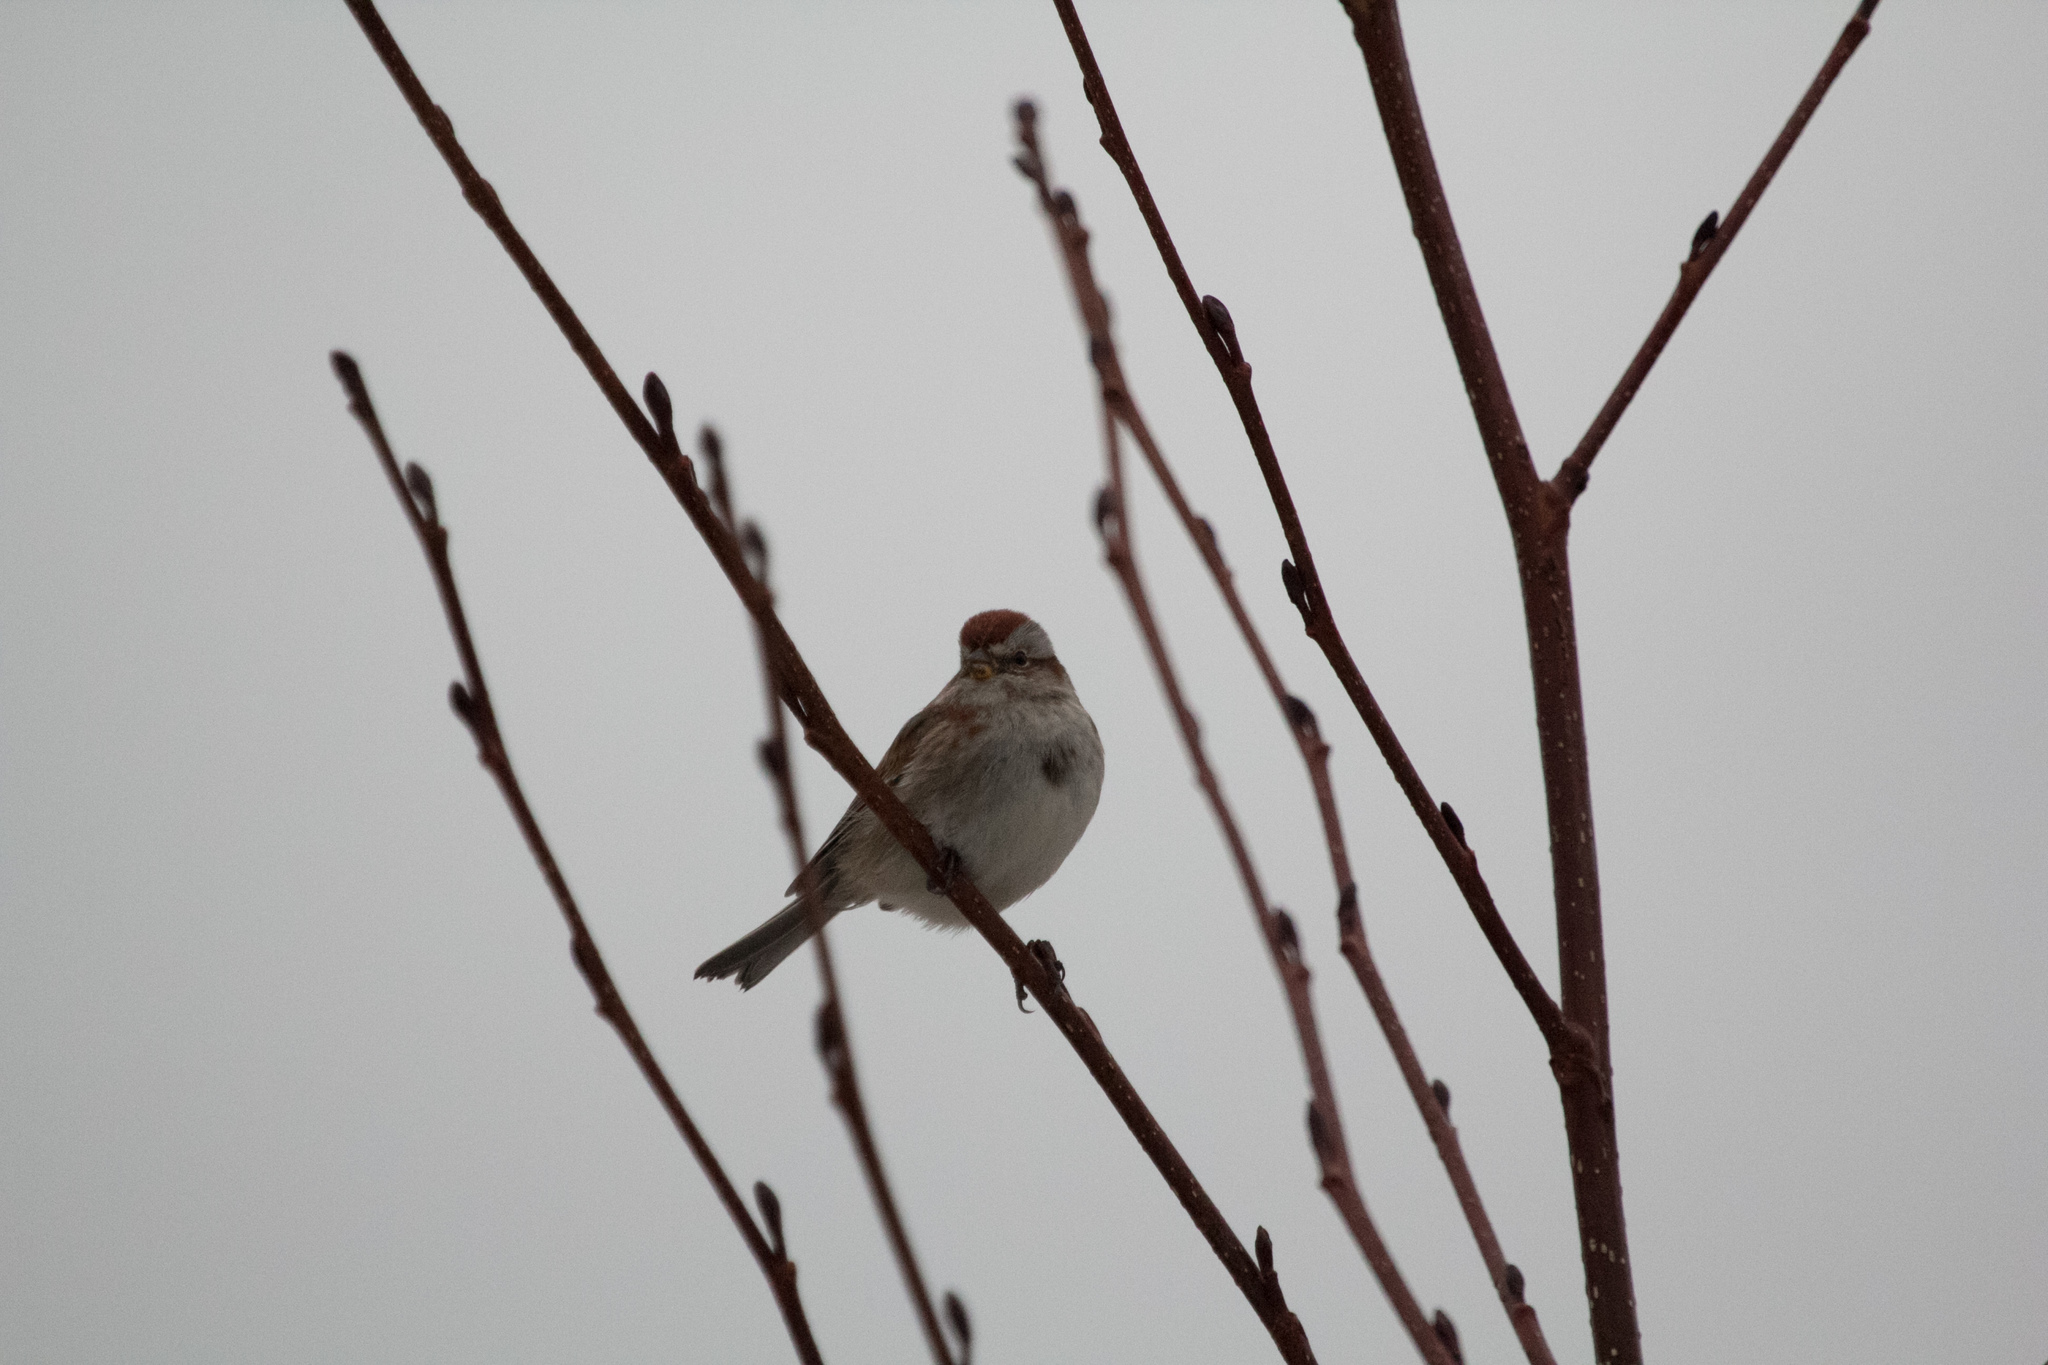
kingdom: Animalia
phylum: Chordata
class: Aves
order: Passeriformes
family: Passerellidae
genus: Spizelloides
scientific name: Spizelloides arborea
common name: American tree sparrow
